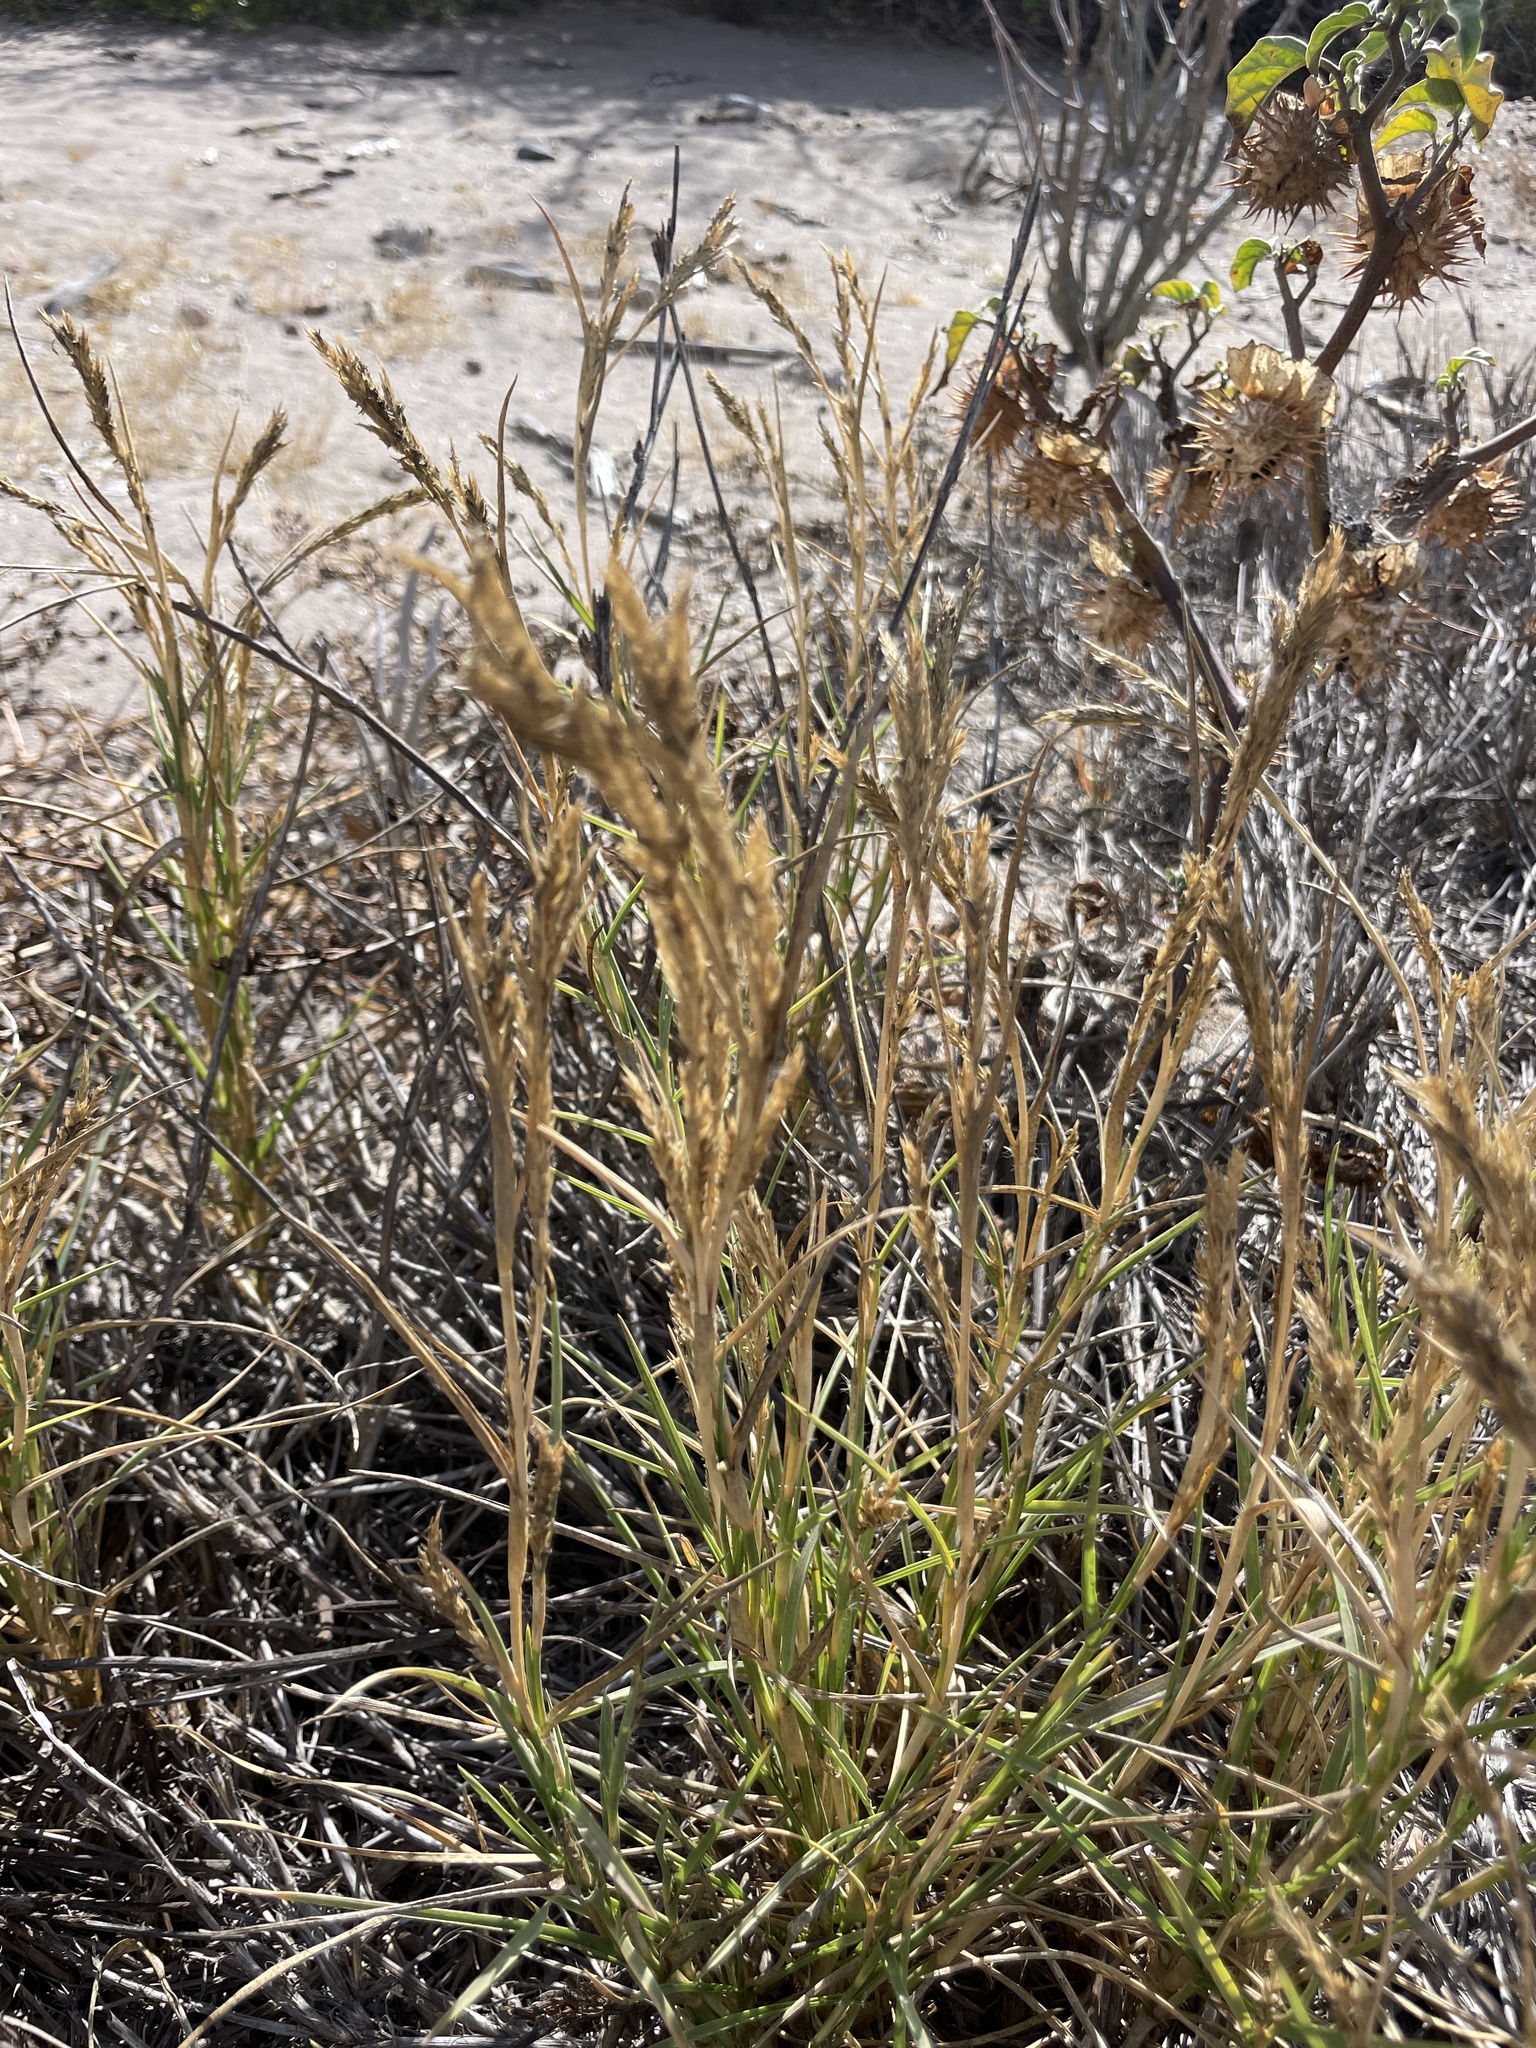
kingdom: Plantae
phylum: Tracheophyta
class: Liliopsida
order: Poales
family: Poaceae
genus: Jouvea
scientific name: Jouvea pilosa
